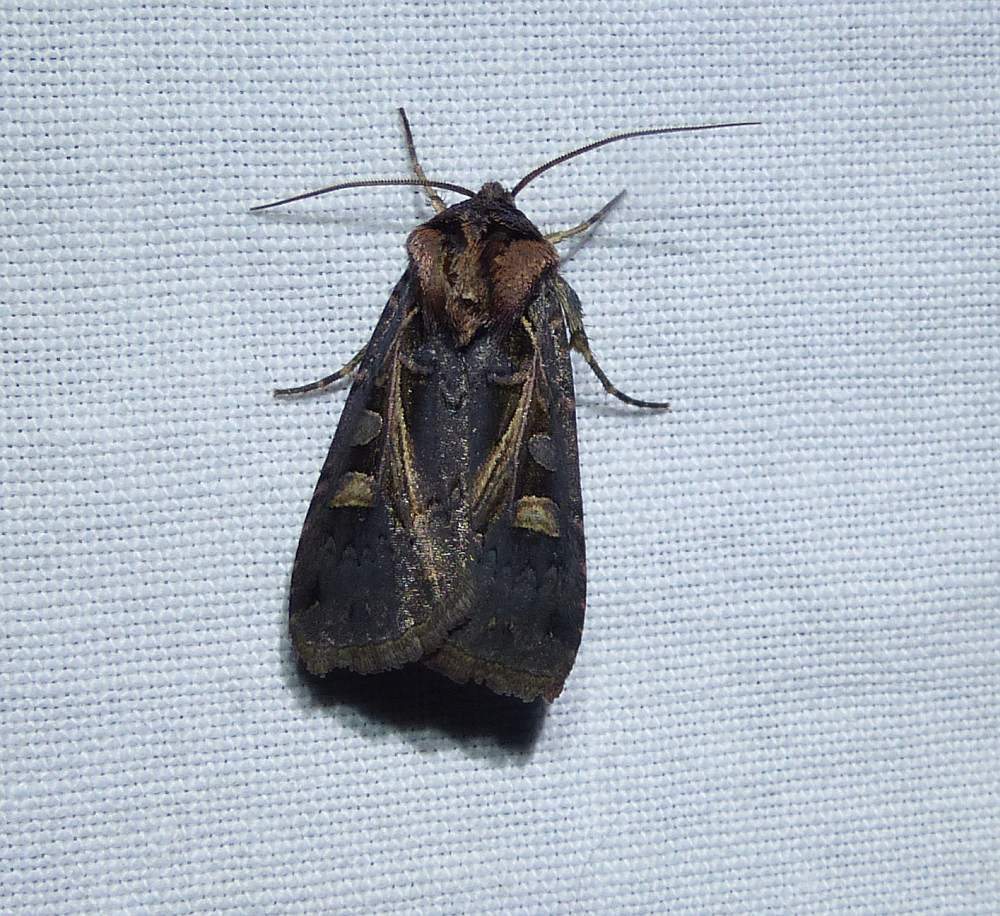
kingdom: Animalia
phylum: Arthropoda
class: Insecta
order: Lepidoptera
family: Noctuidae
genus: Feltia
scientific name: Feltia herilis
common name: Master's dart
